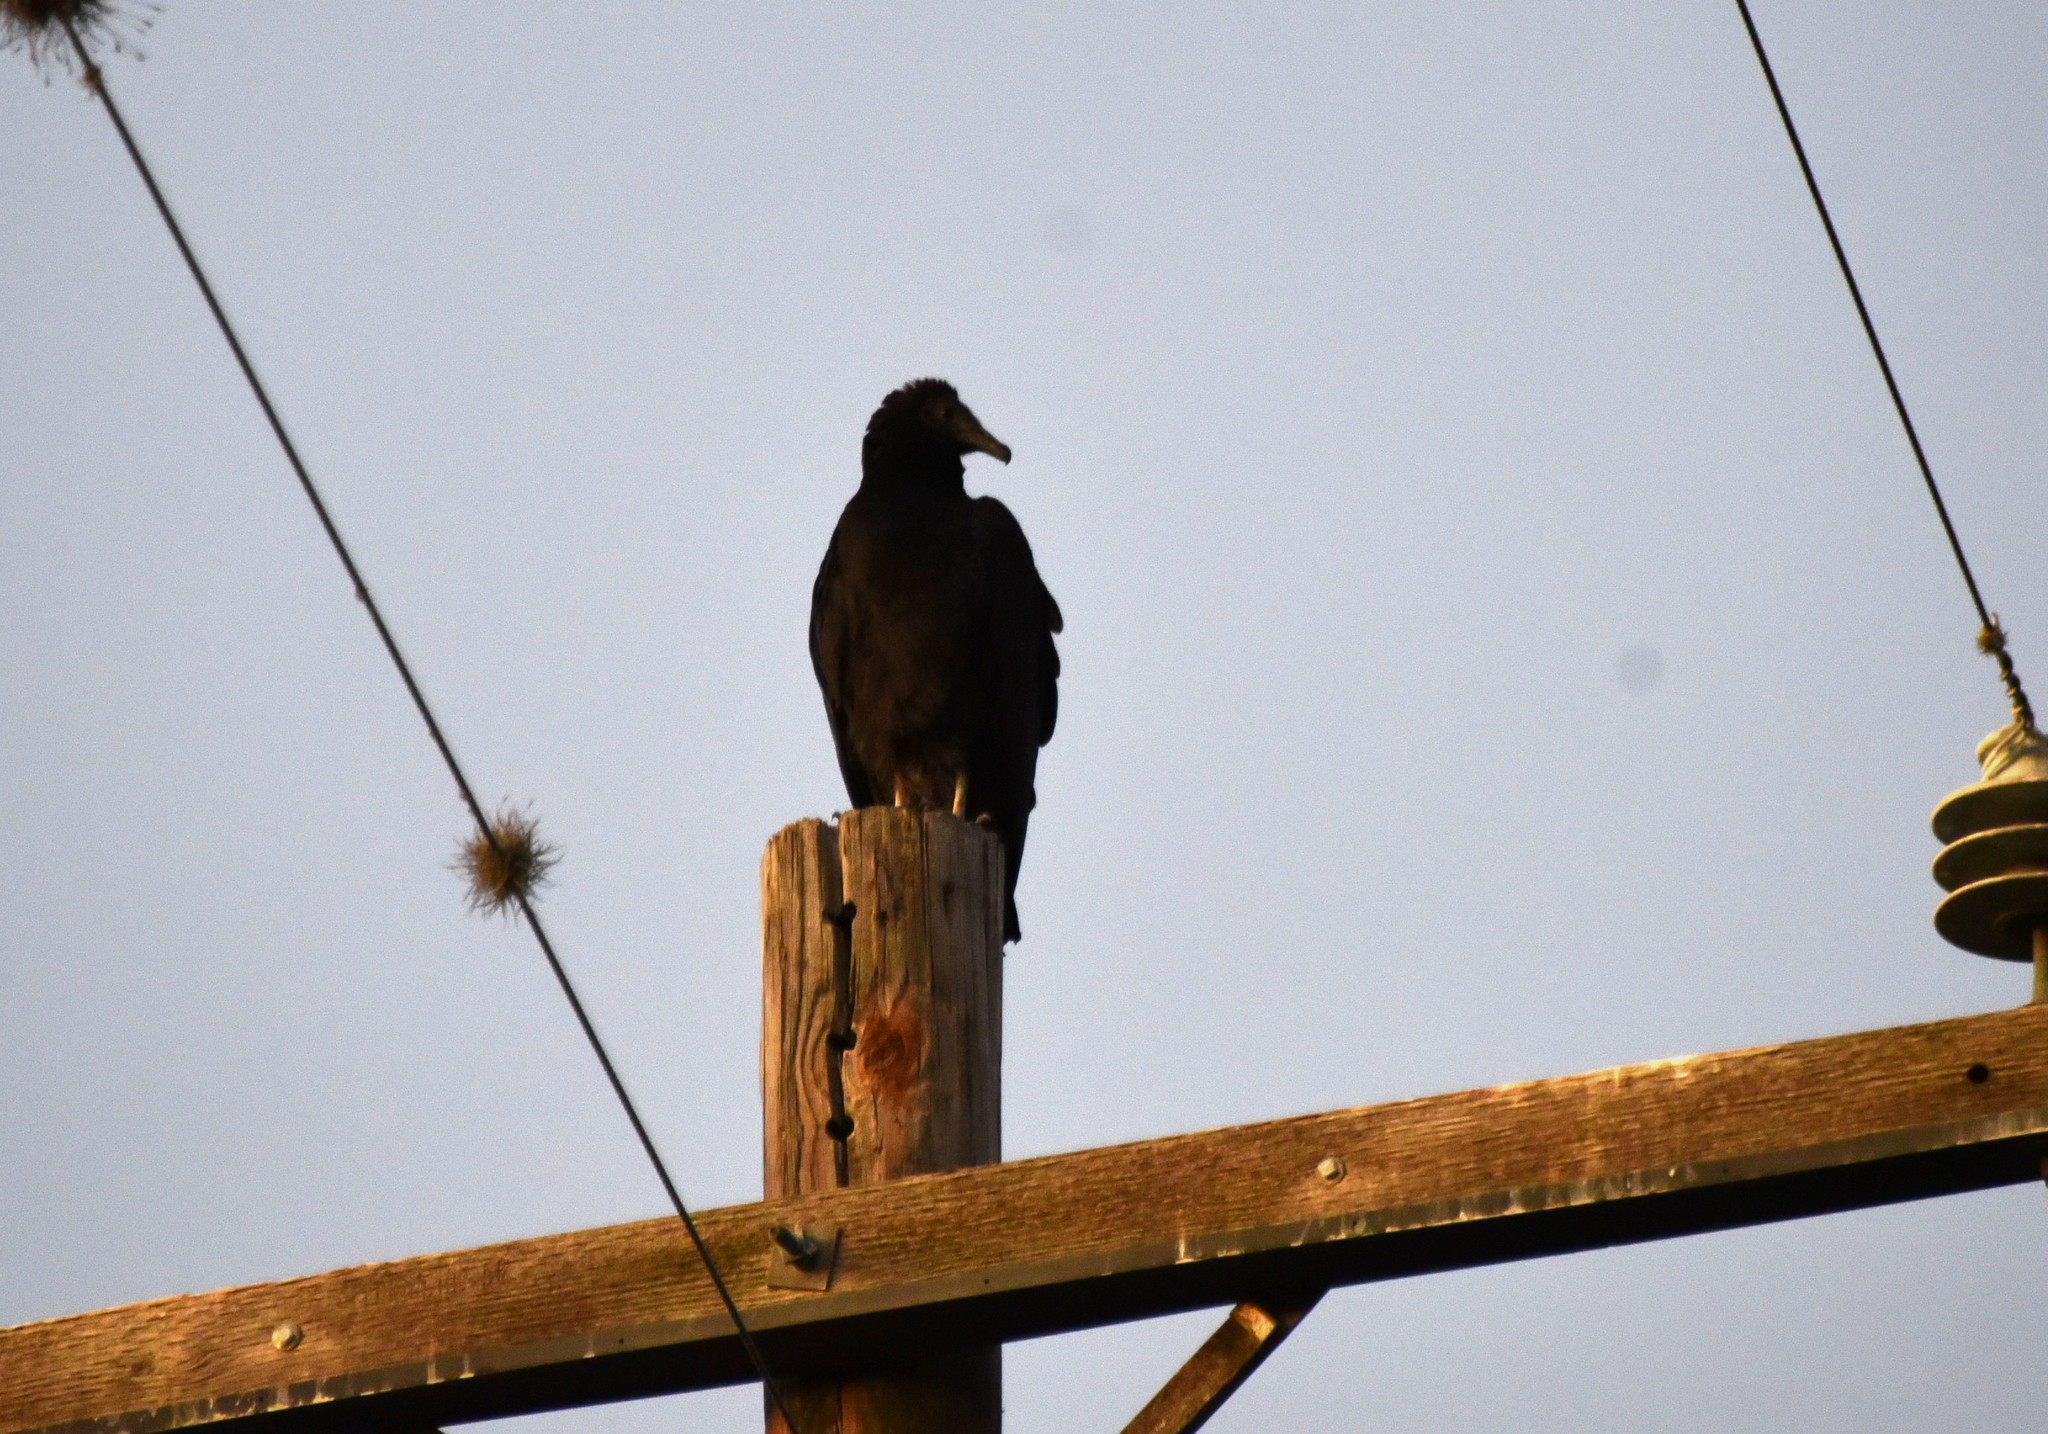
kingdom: Animalia
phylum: Chordata
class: Aves
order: Accipitriformes
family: Cathartidae
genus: Coragyps
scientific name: Coragyps atratus
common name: Black vulture
